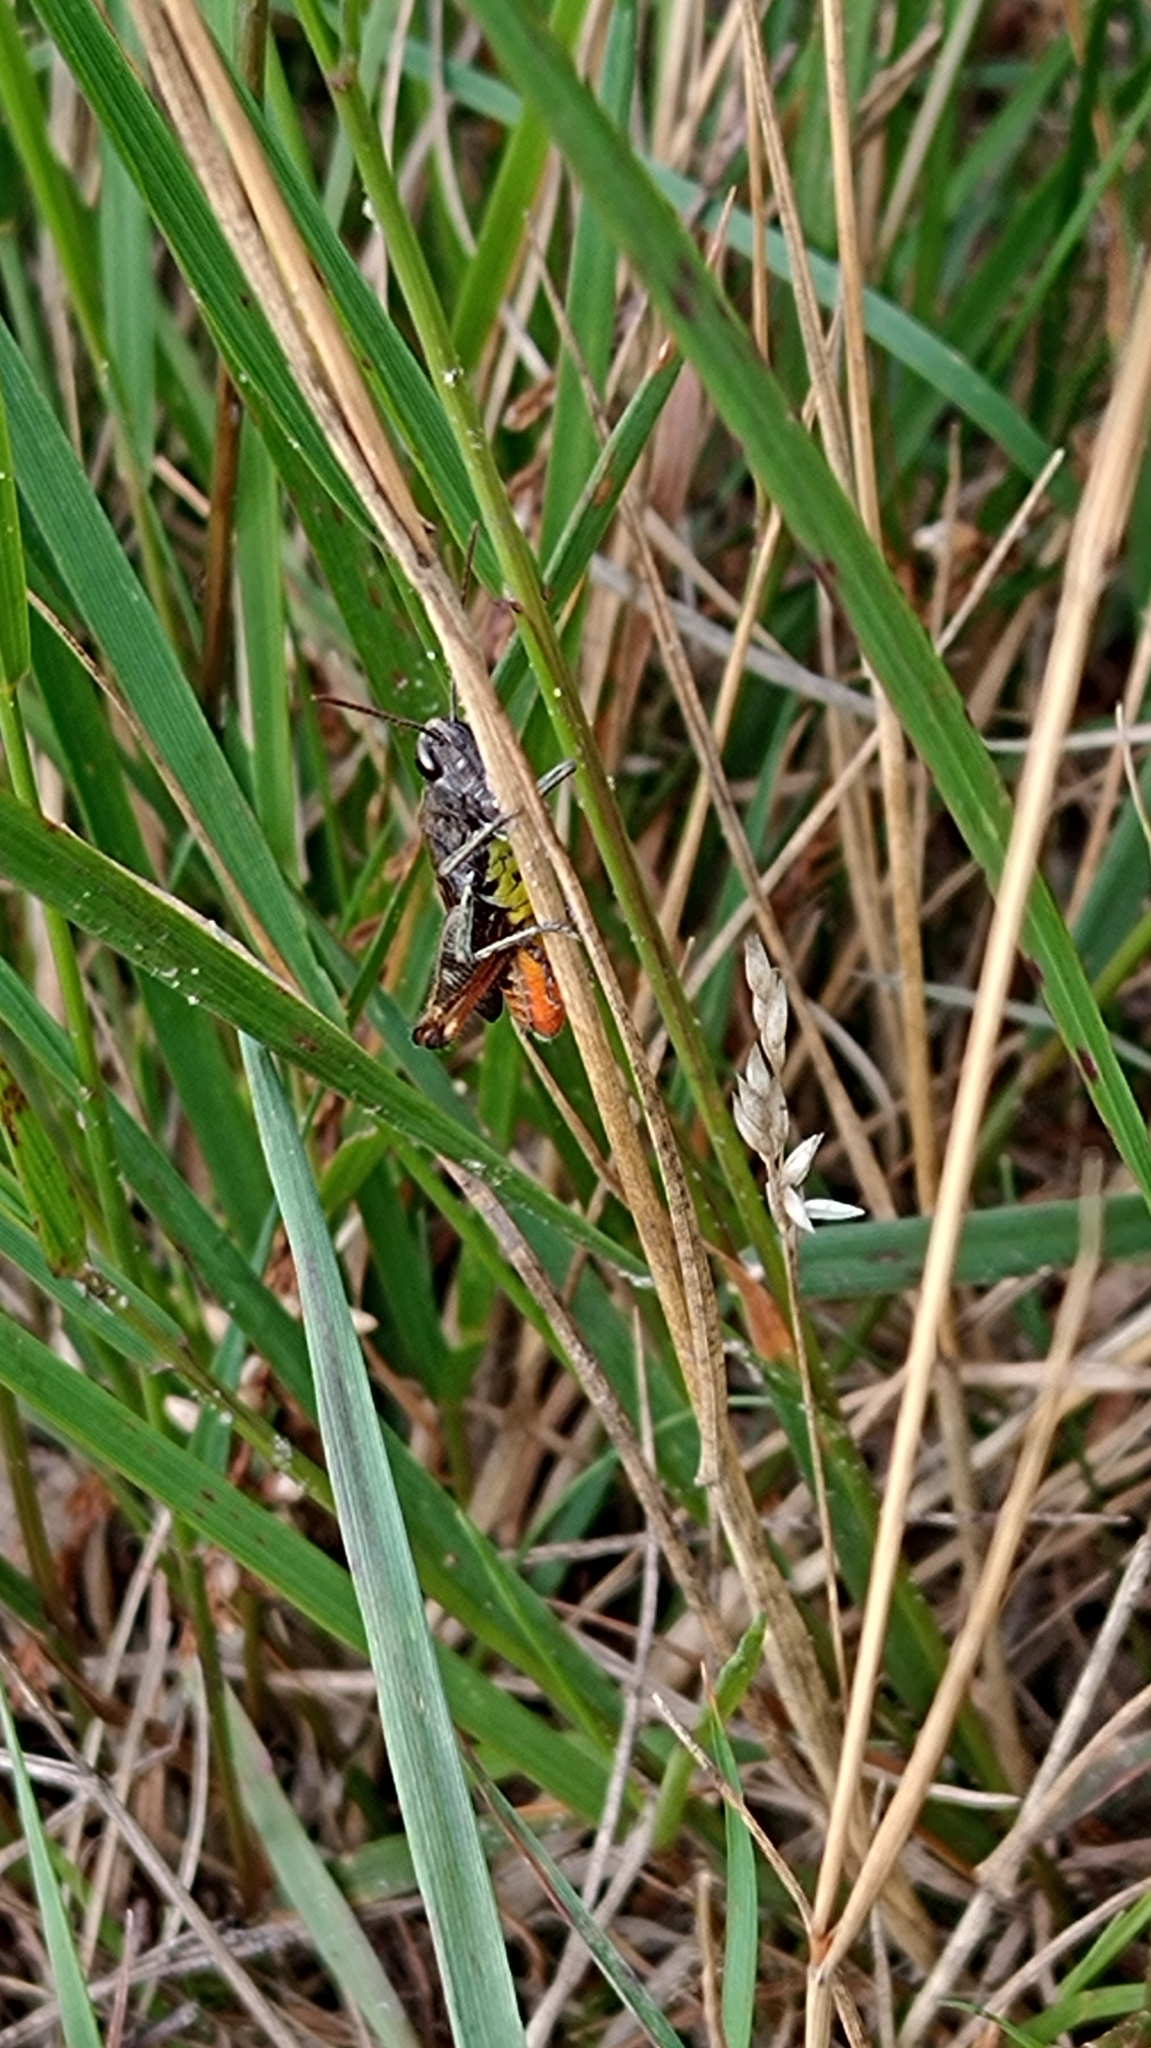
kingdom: Animalia
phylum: Arthropoda
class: Insecta
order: Orthoptera
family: Acrididae
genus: Omocestus
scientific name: Omocestus rufipes
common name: Woodland grasshopper
